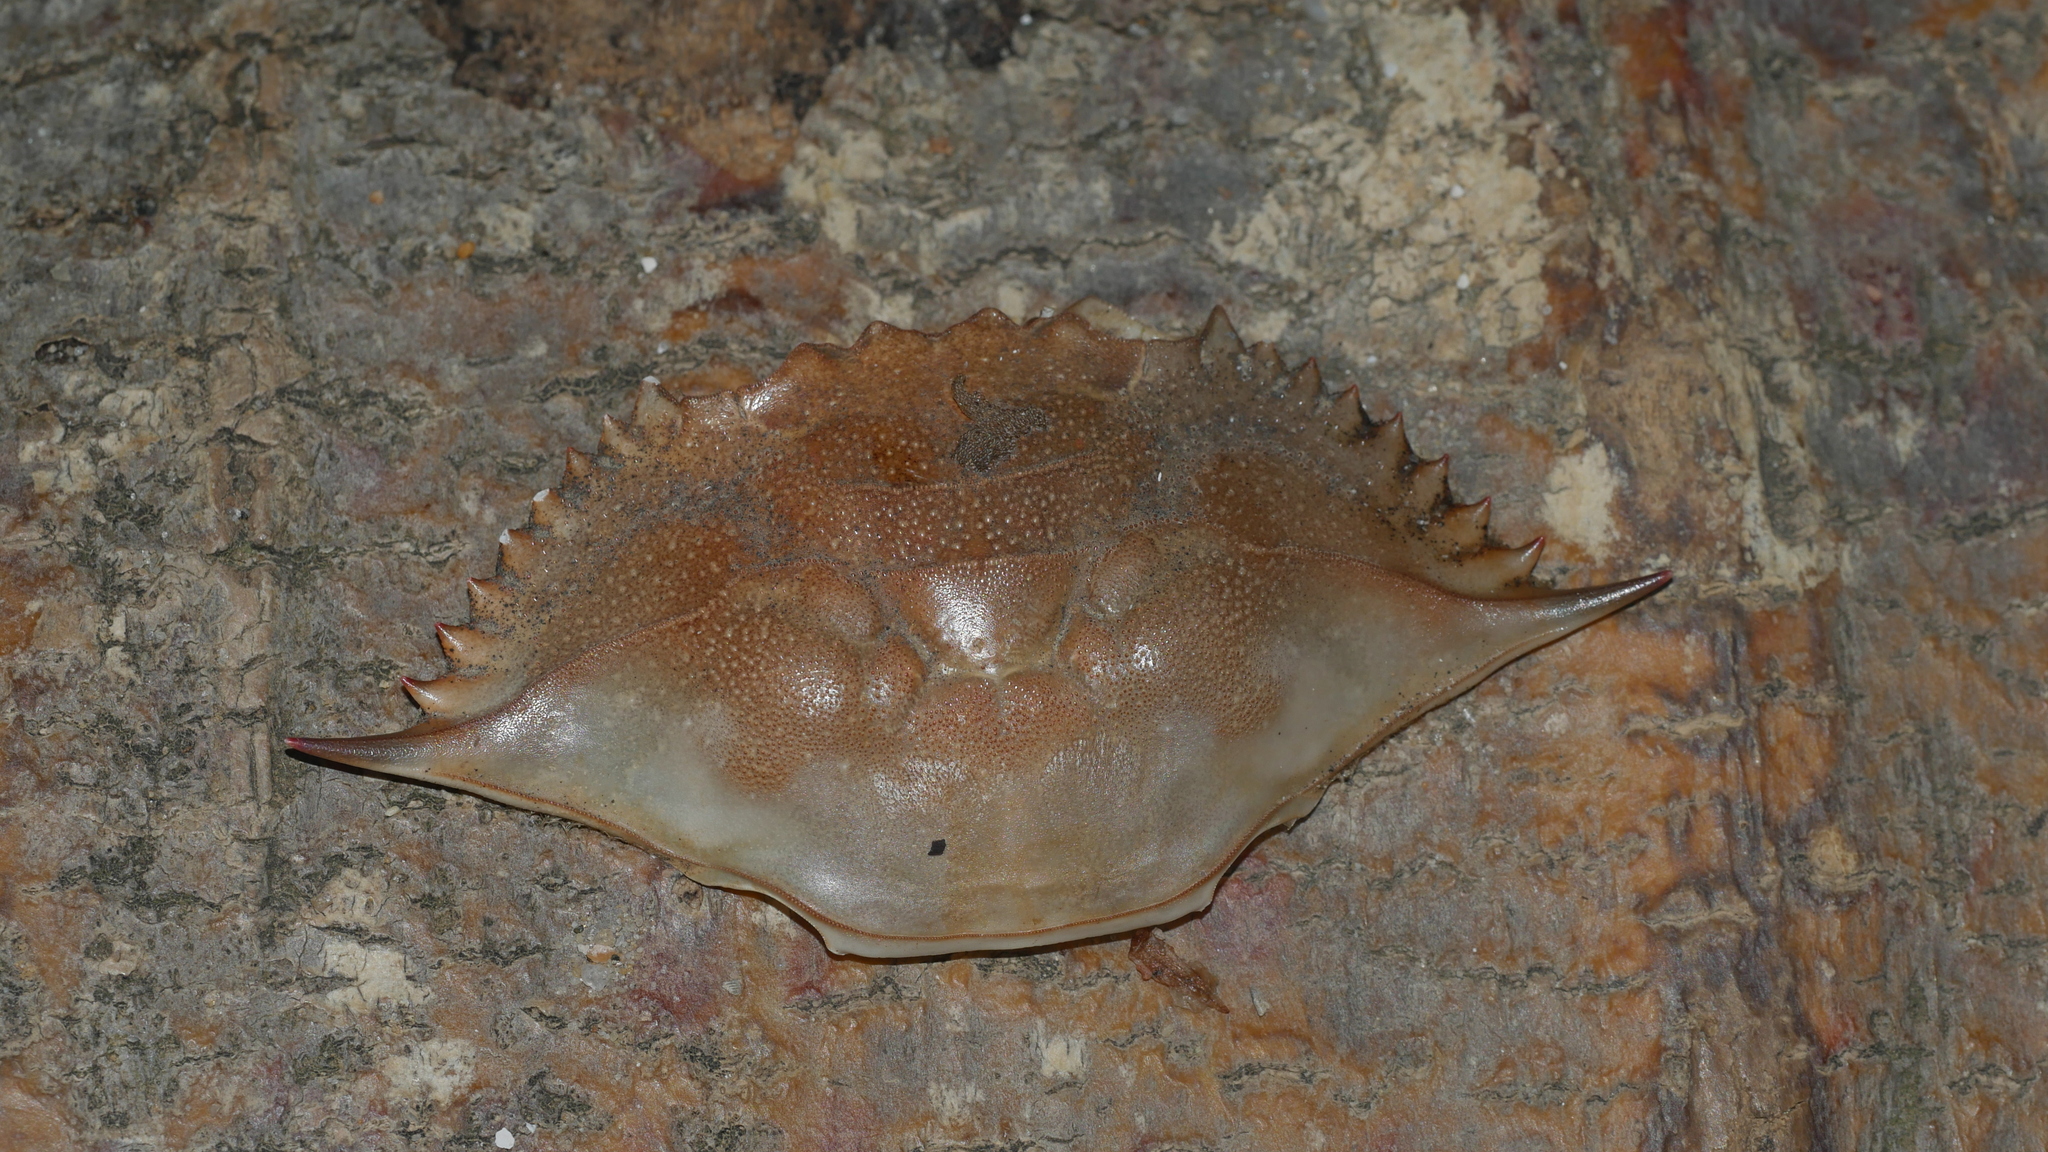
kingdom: Animalia
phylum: Arthropoda
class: Malacostraca
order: Decapoda
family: Portunidae
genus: Callinectes
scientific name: Callinectes sapidus
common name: Blue crab
